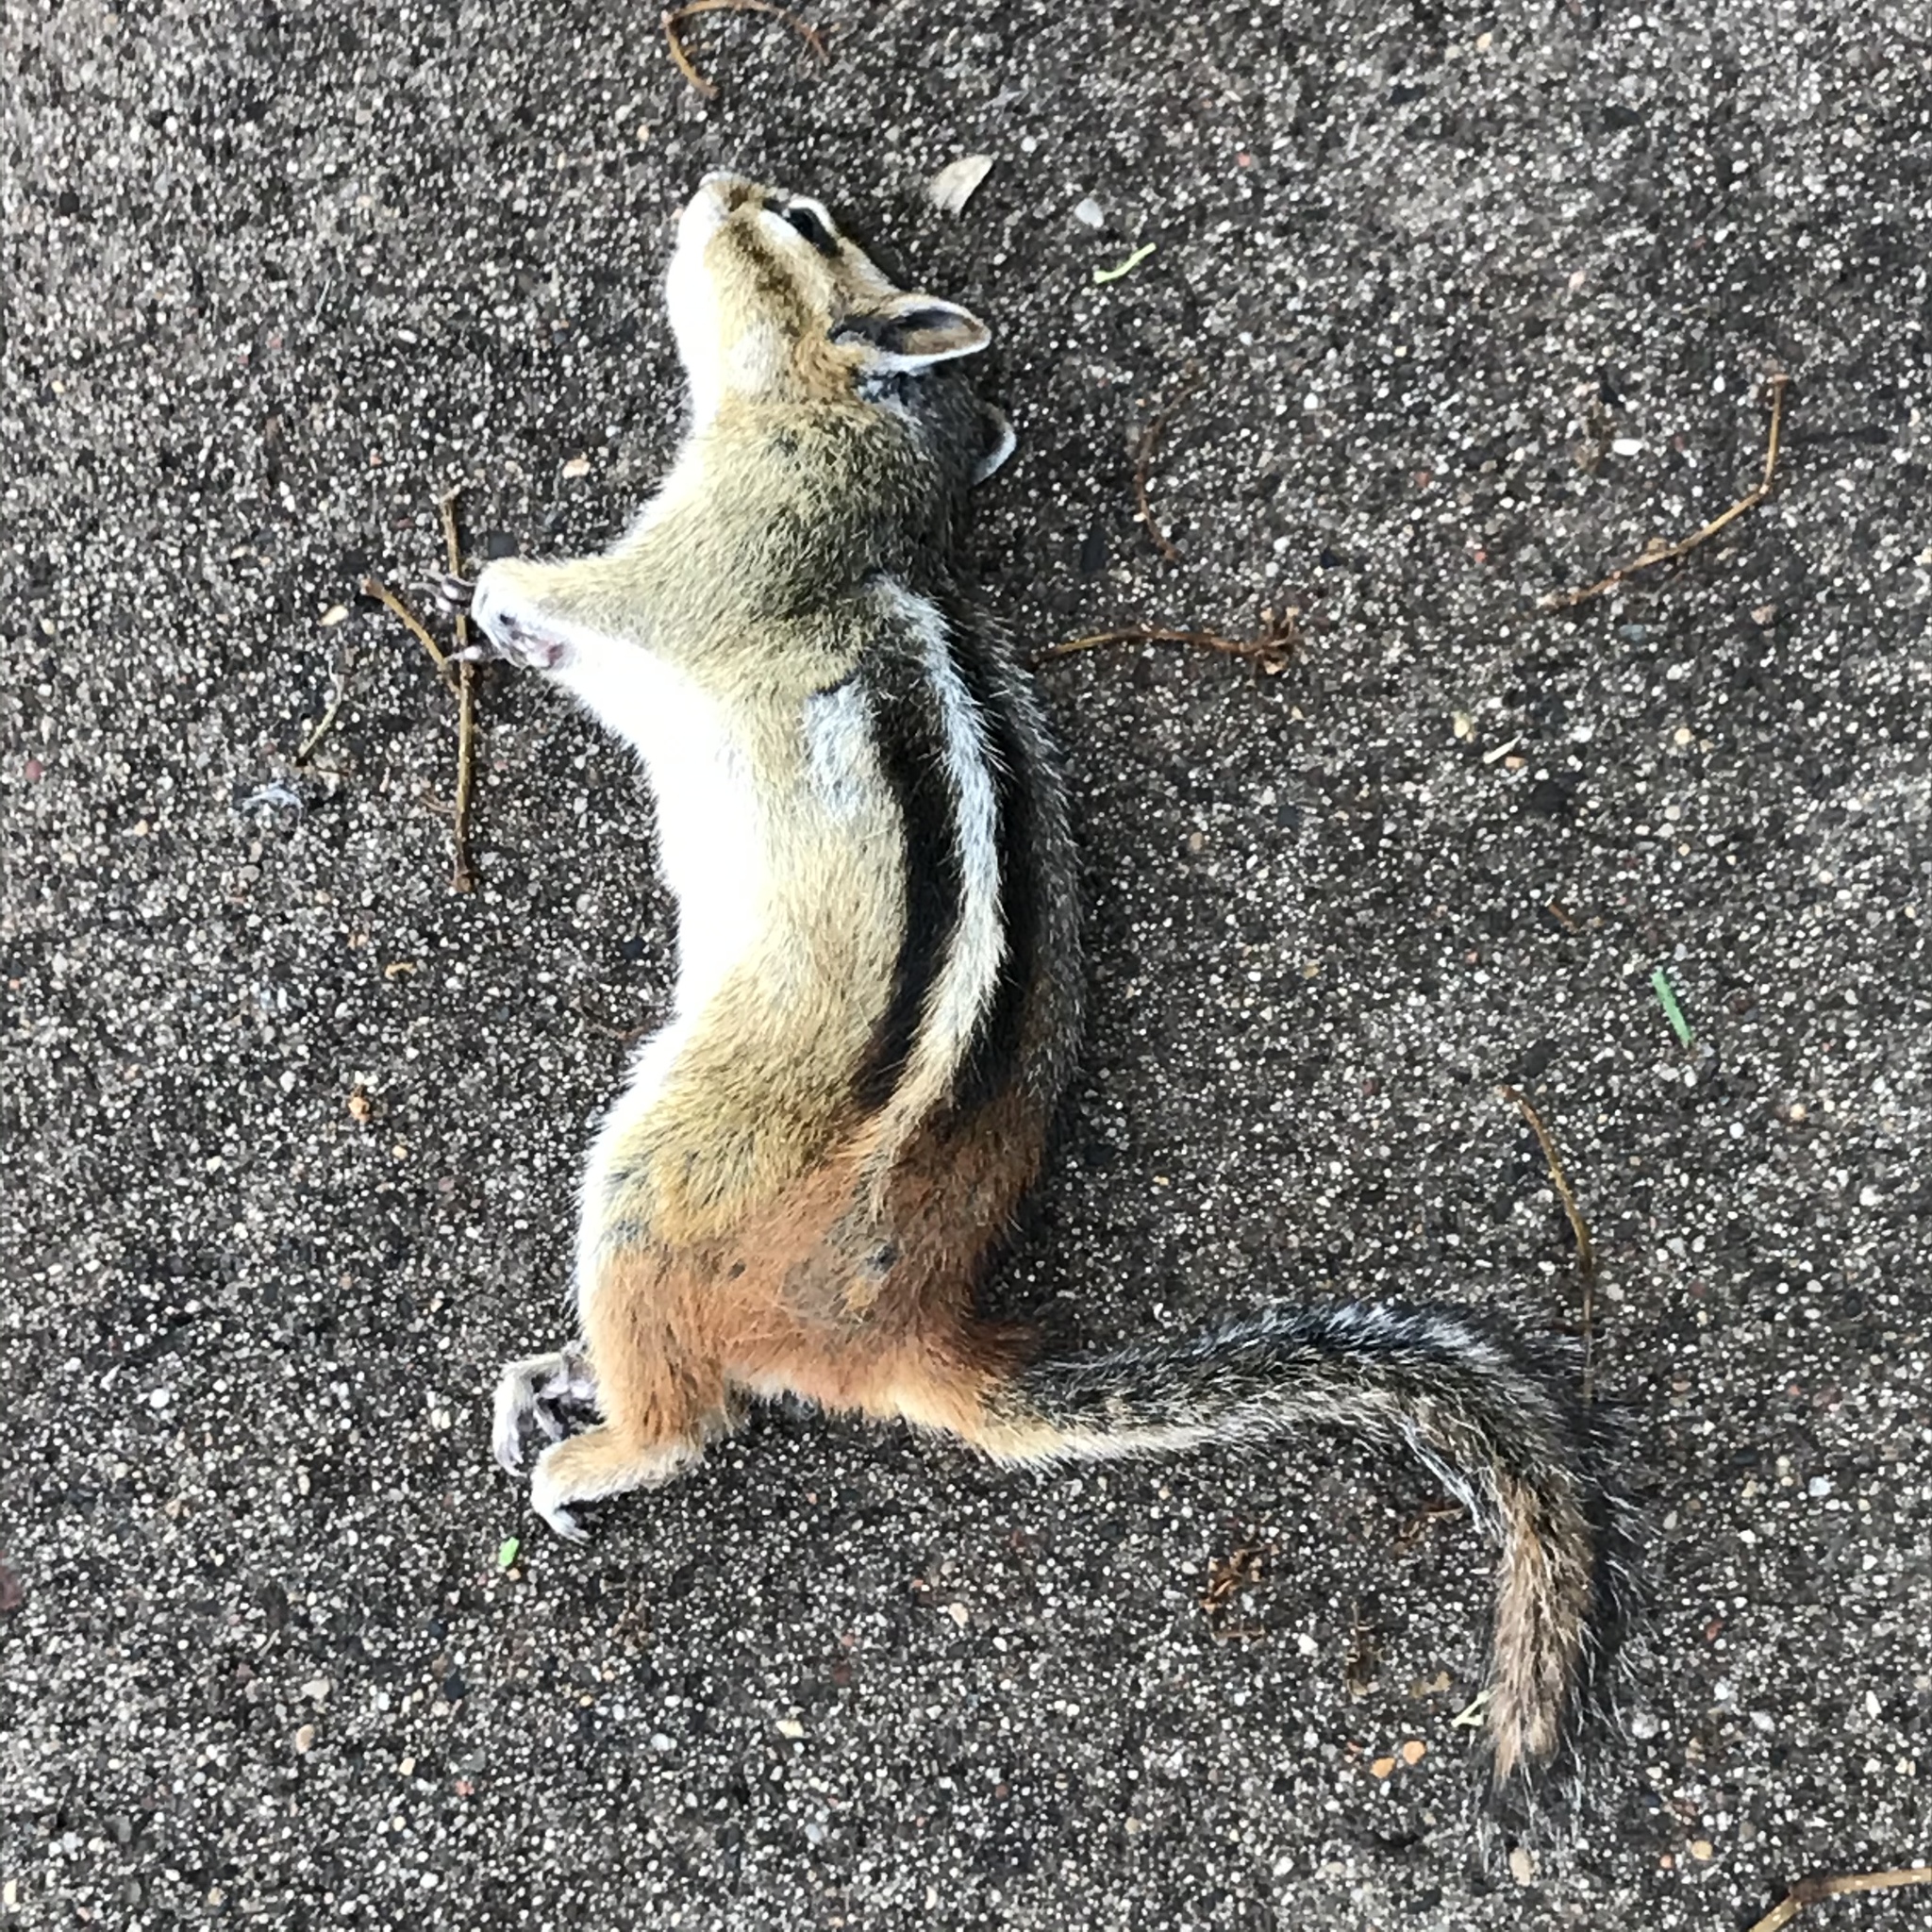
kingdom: Animalia
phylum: Chordata
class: Mammalia
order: Rodentia
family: Sciuridae
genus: Tamias
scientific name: Tamias striatus
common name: Eastern chipmunk
